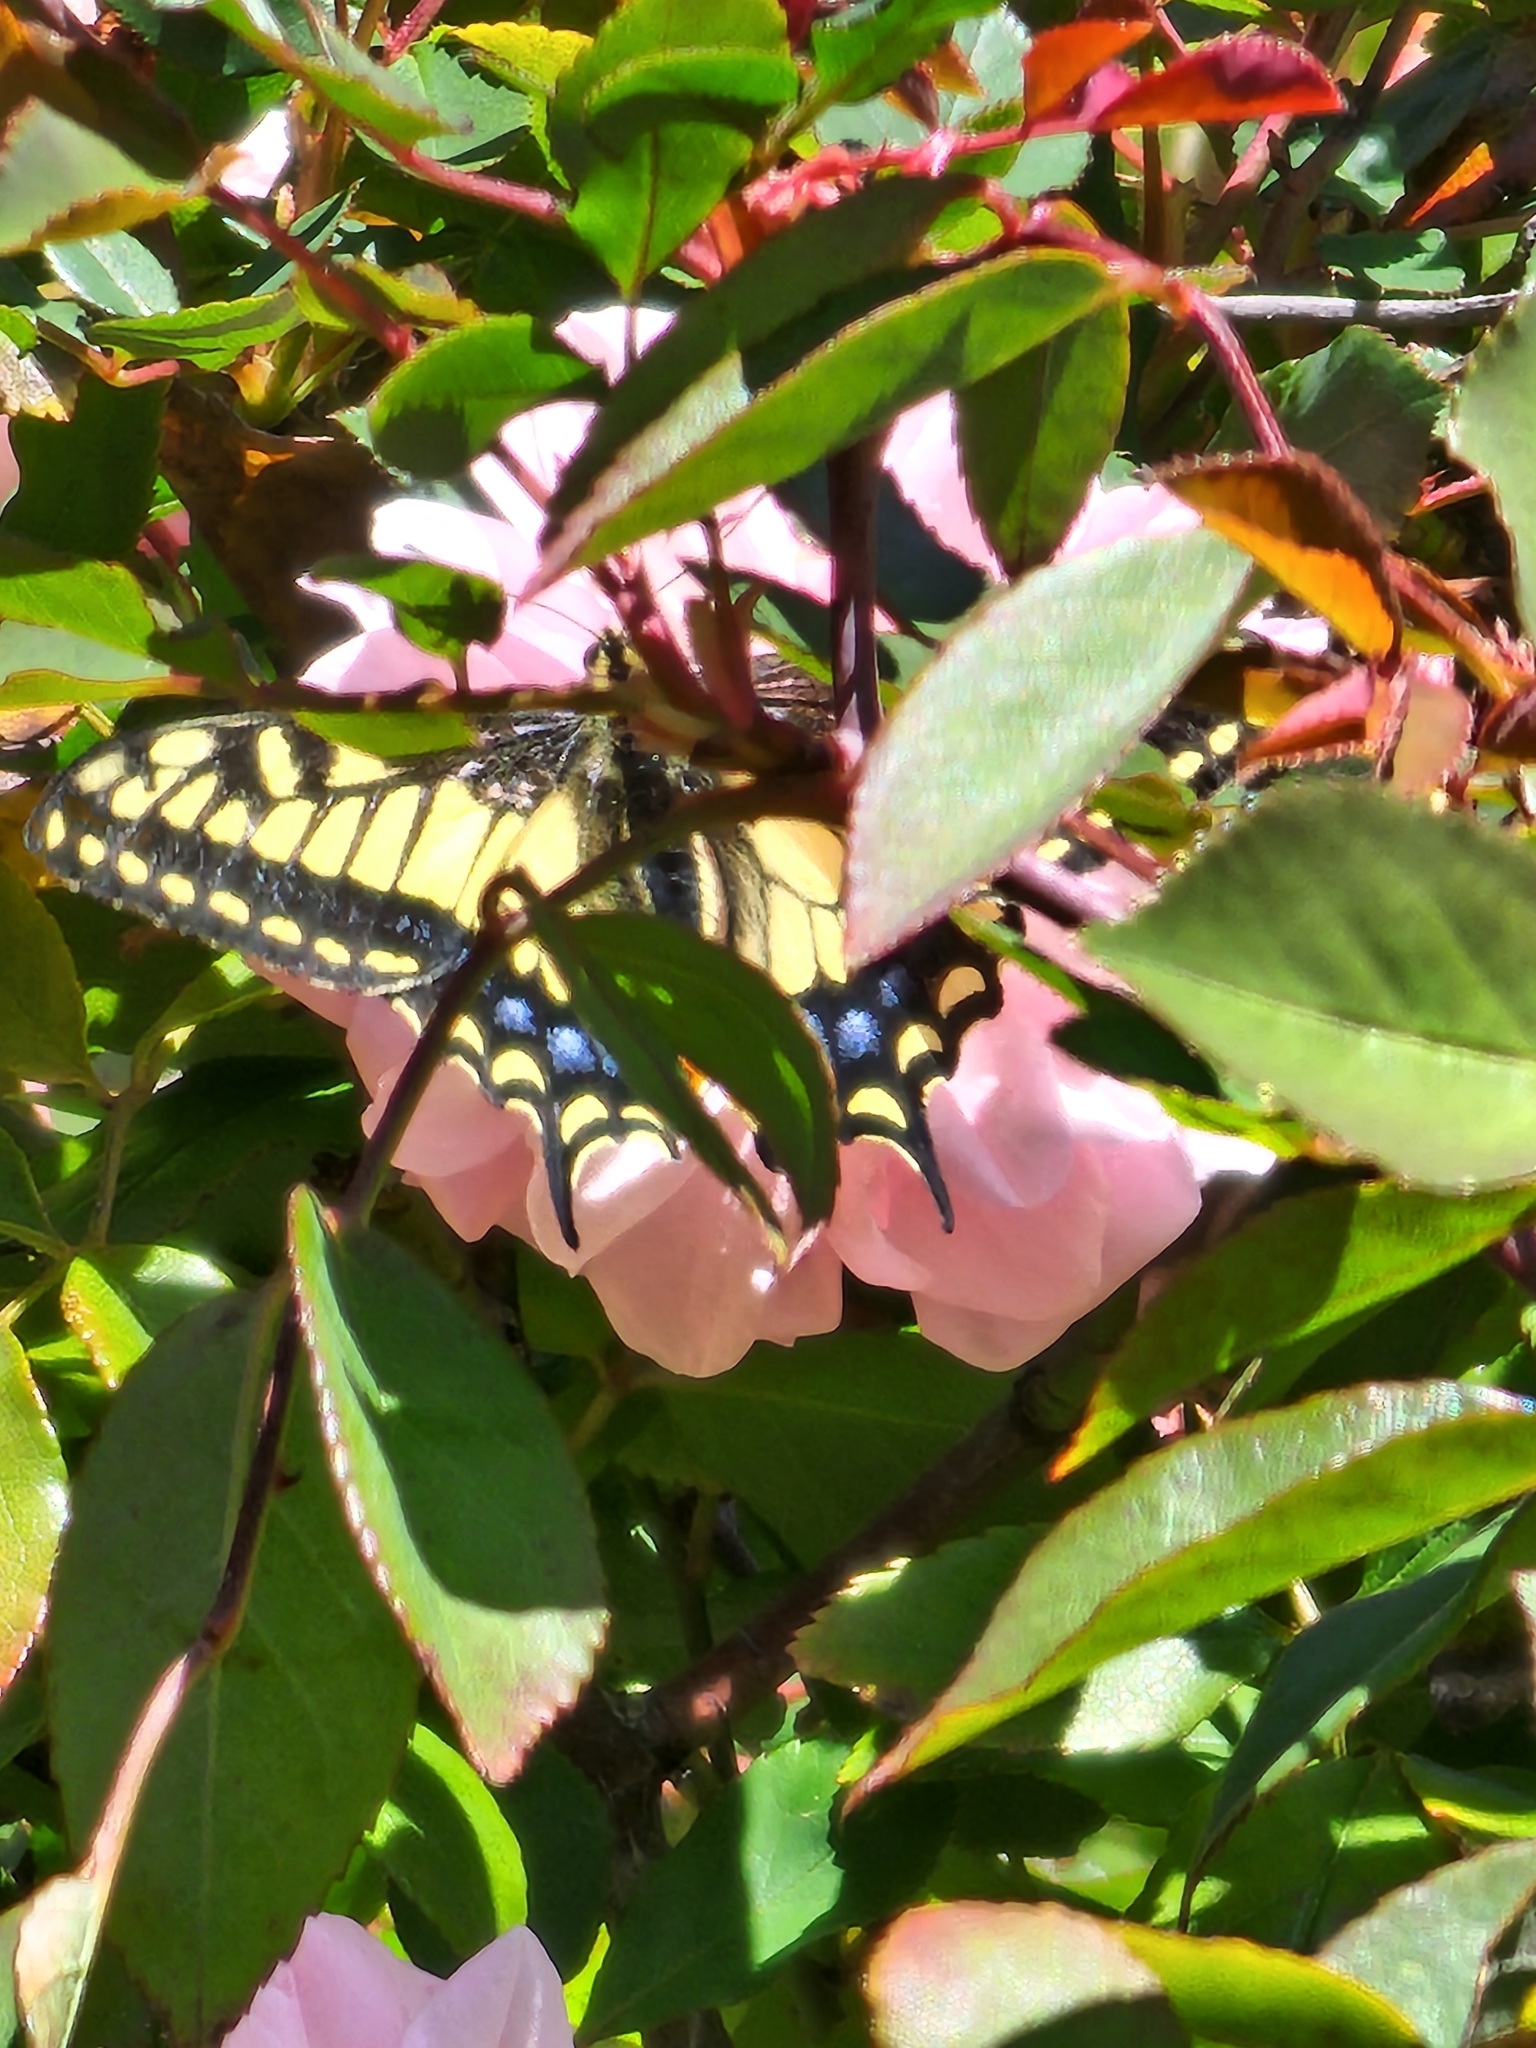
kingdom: Animalia
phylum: Arthropoda
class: Insecta
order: Lepidoptera
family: Papilionidae
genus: Papilio
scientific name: Papilio zelicaon
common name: Anise swallowtail
